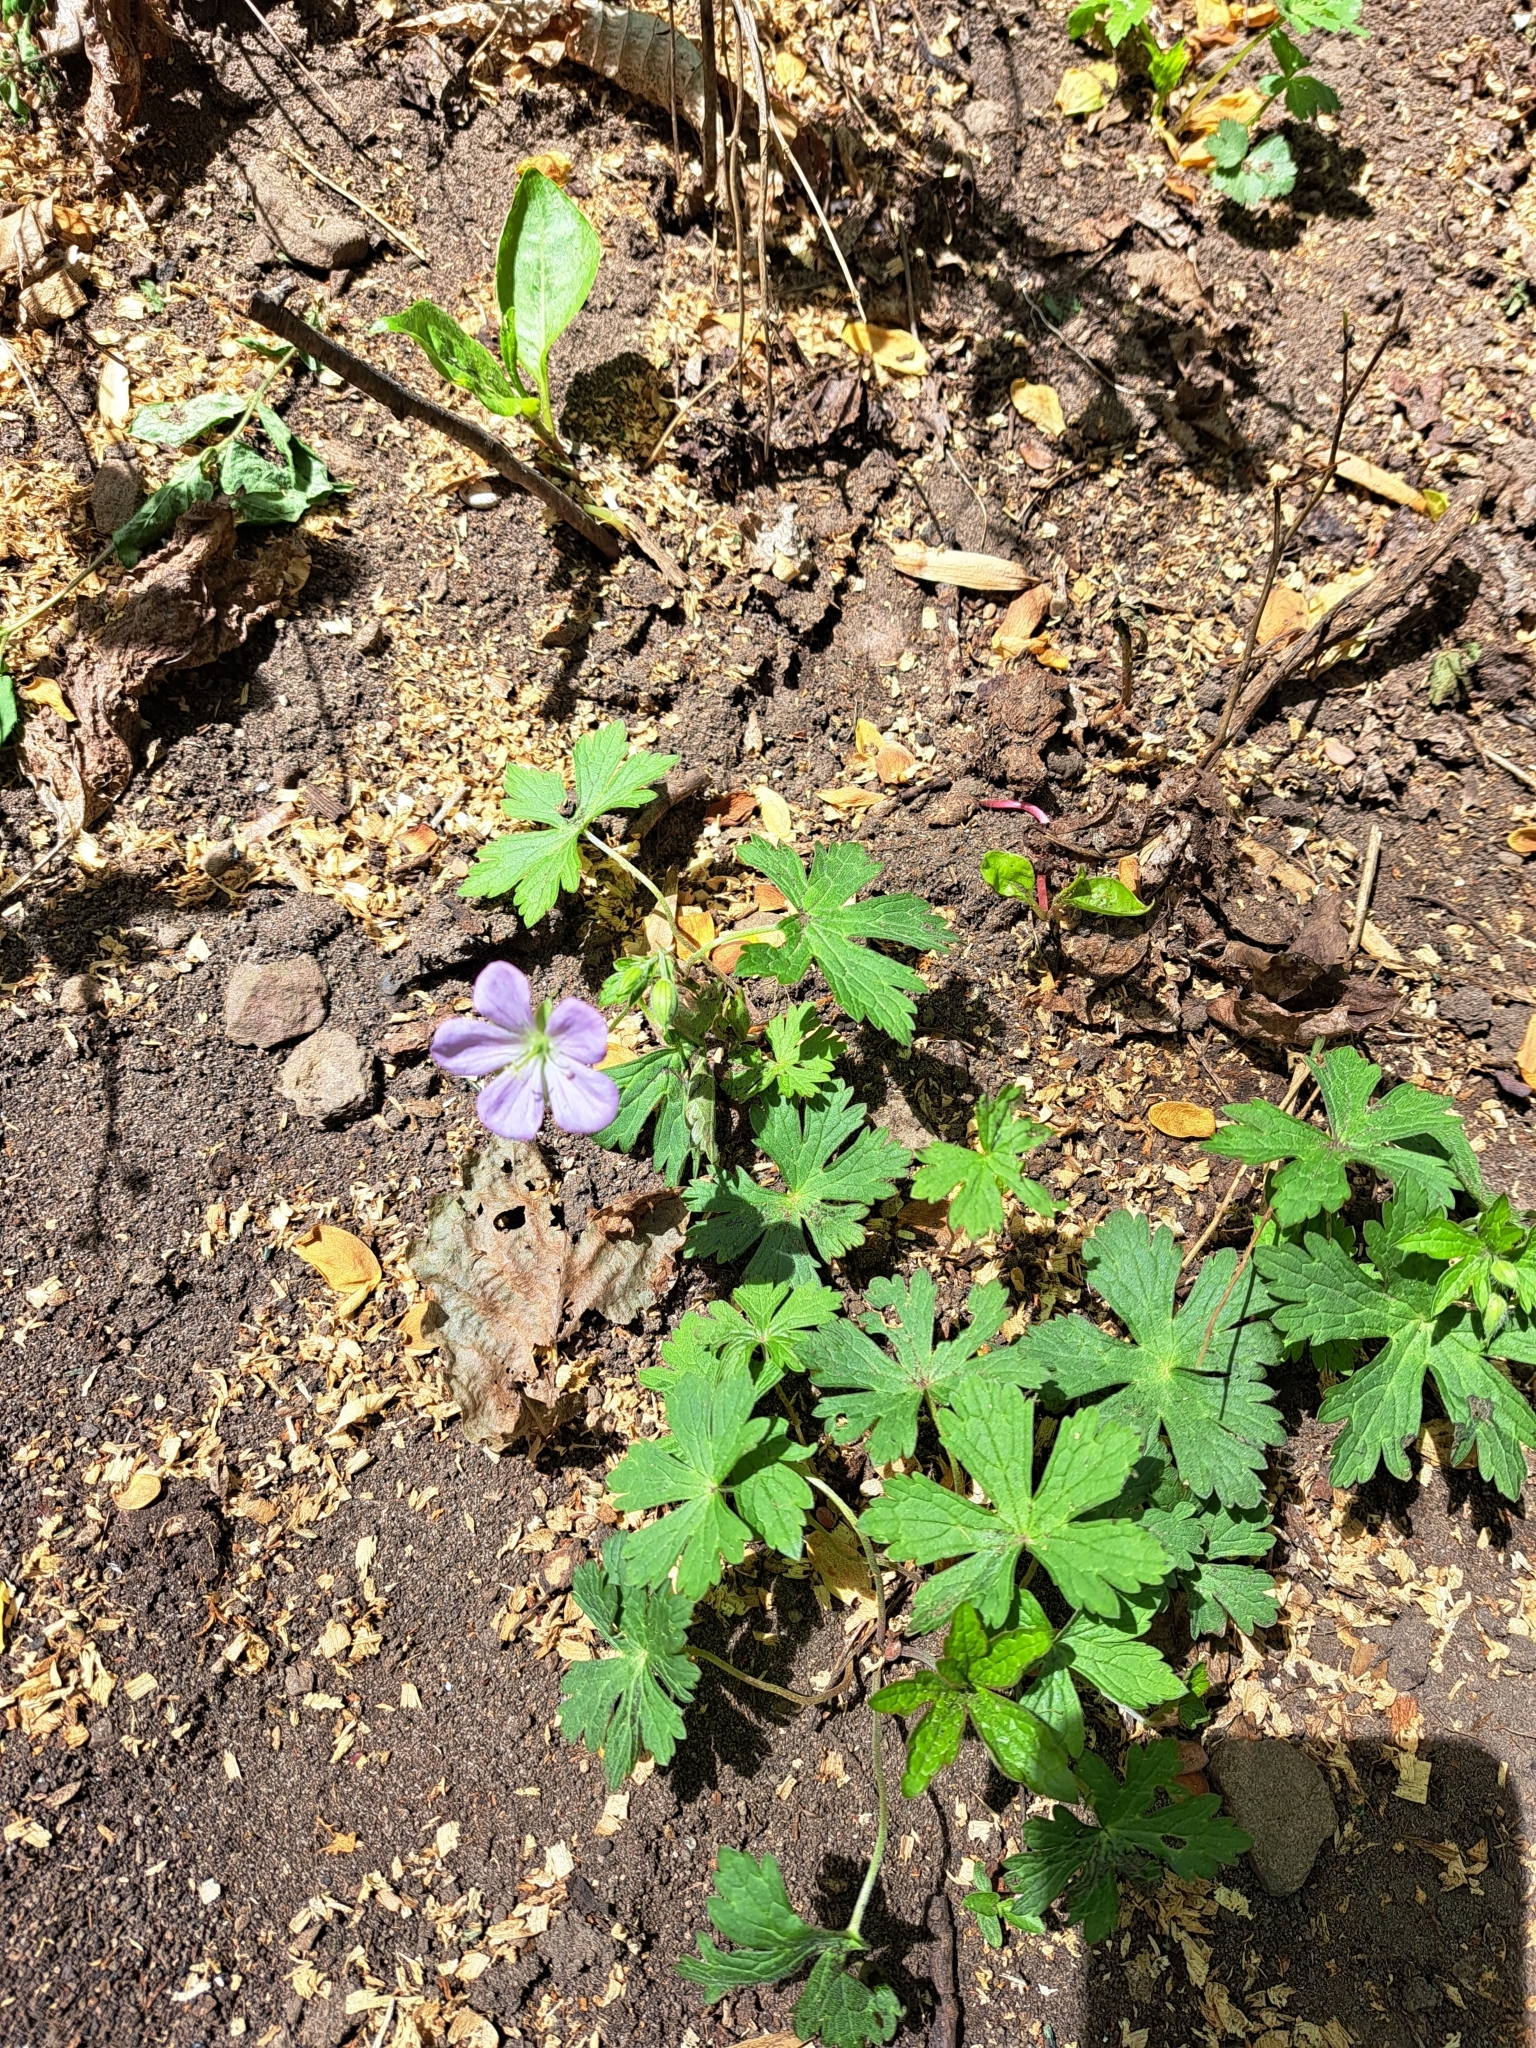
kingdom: Plantae
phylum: Tracheophyta
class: Magnoliopsida
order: Geraniales
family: Geraniaceae
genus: Geranium
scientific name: Geranium maculatum
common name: Spotted geranium
